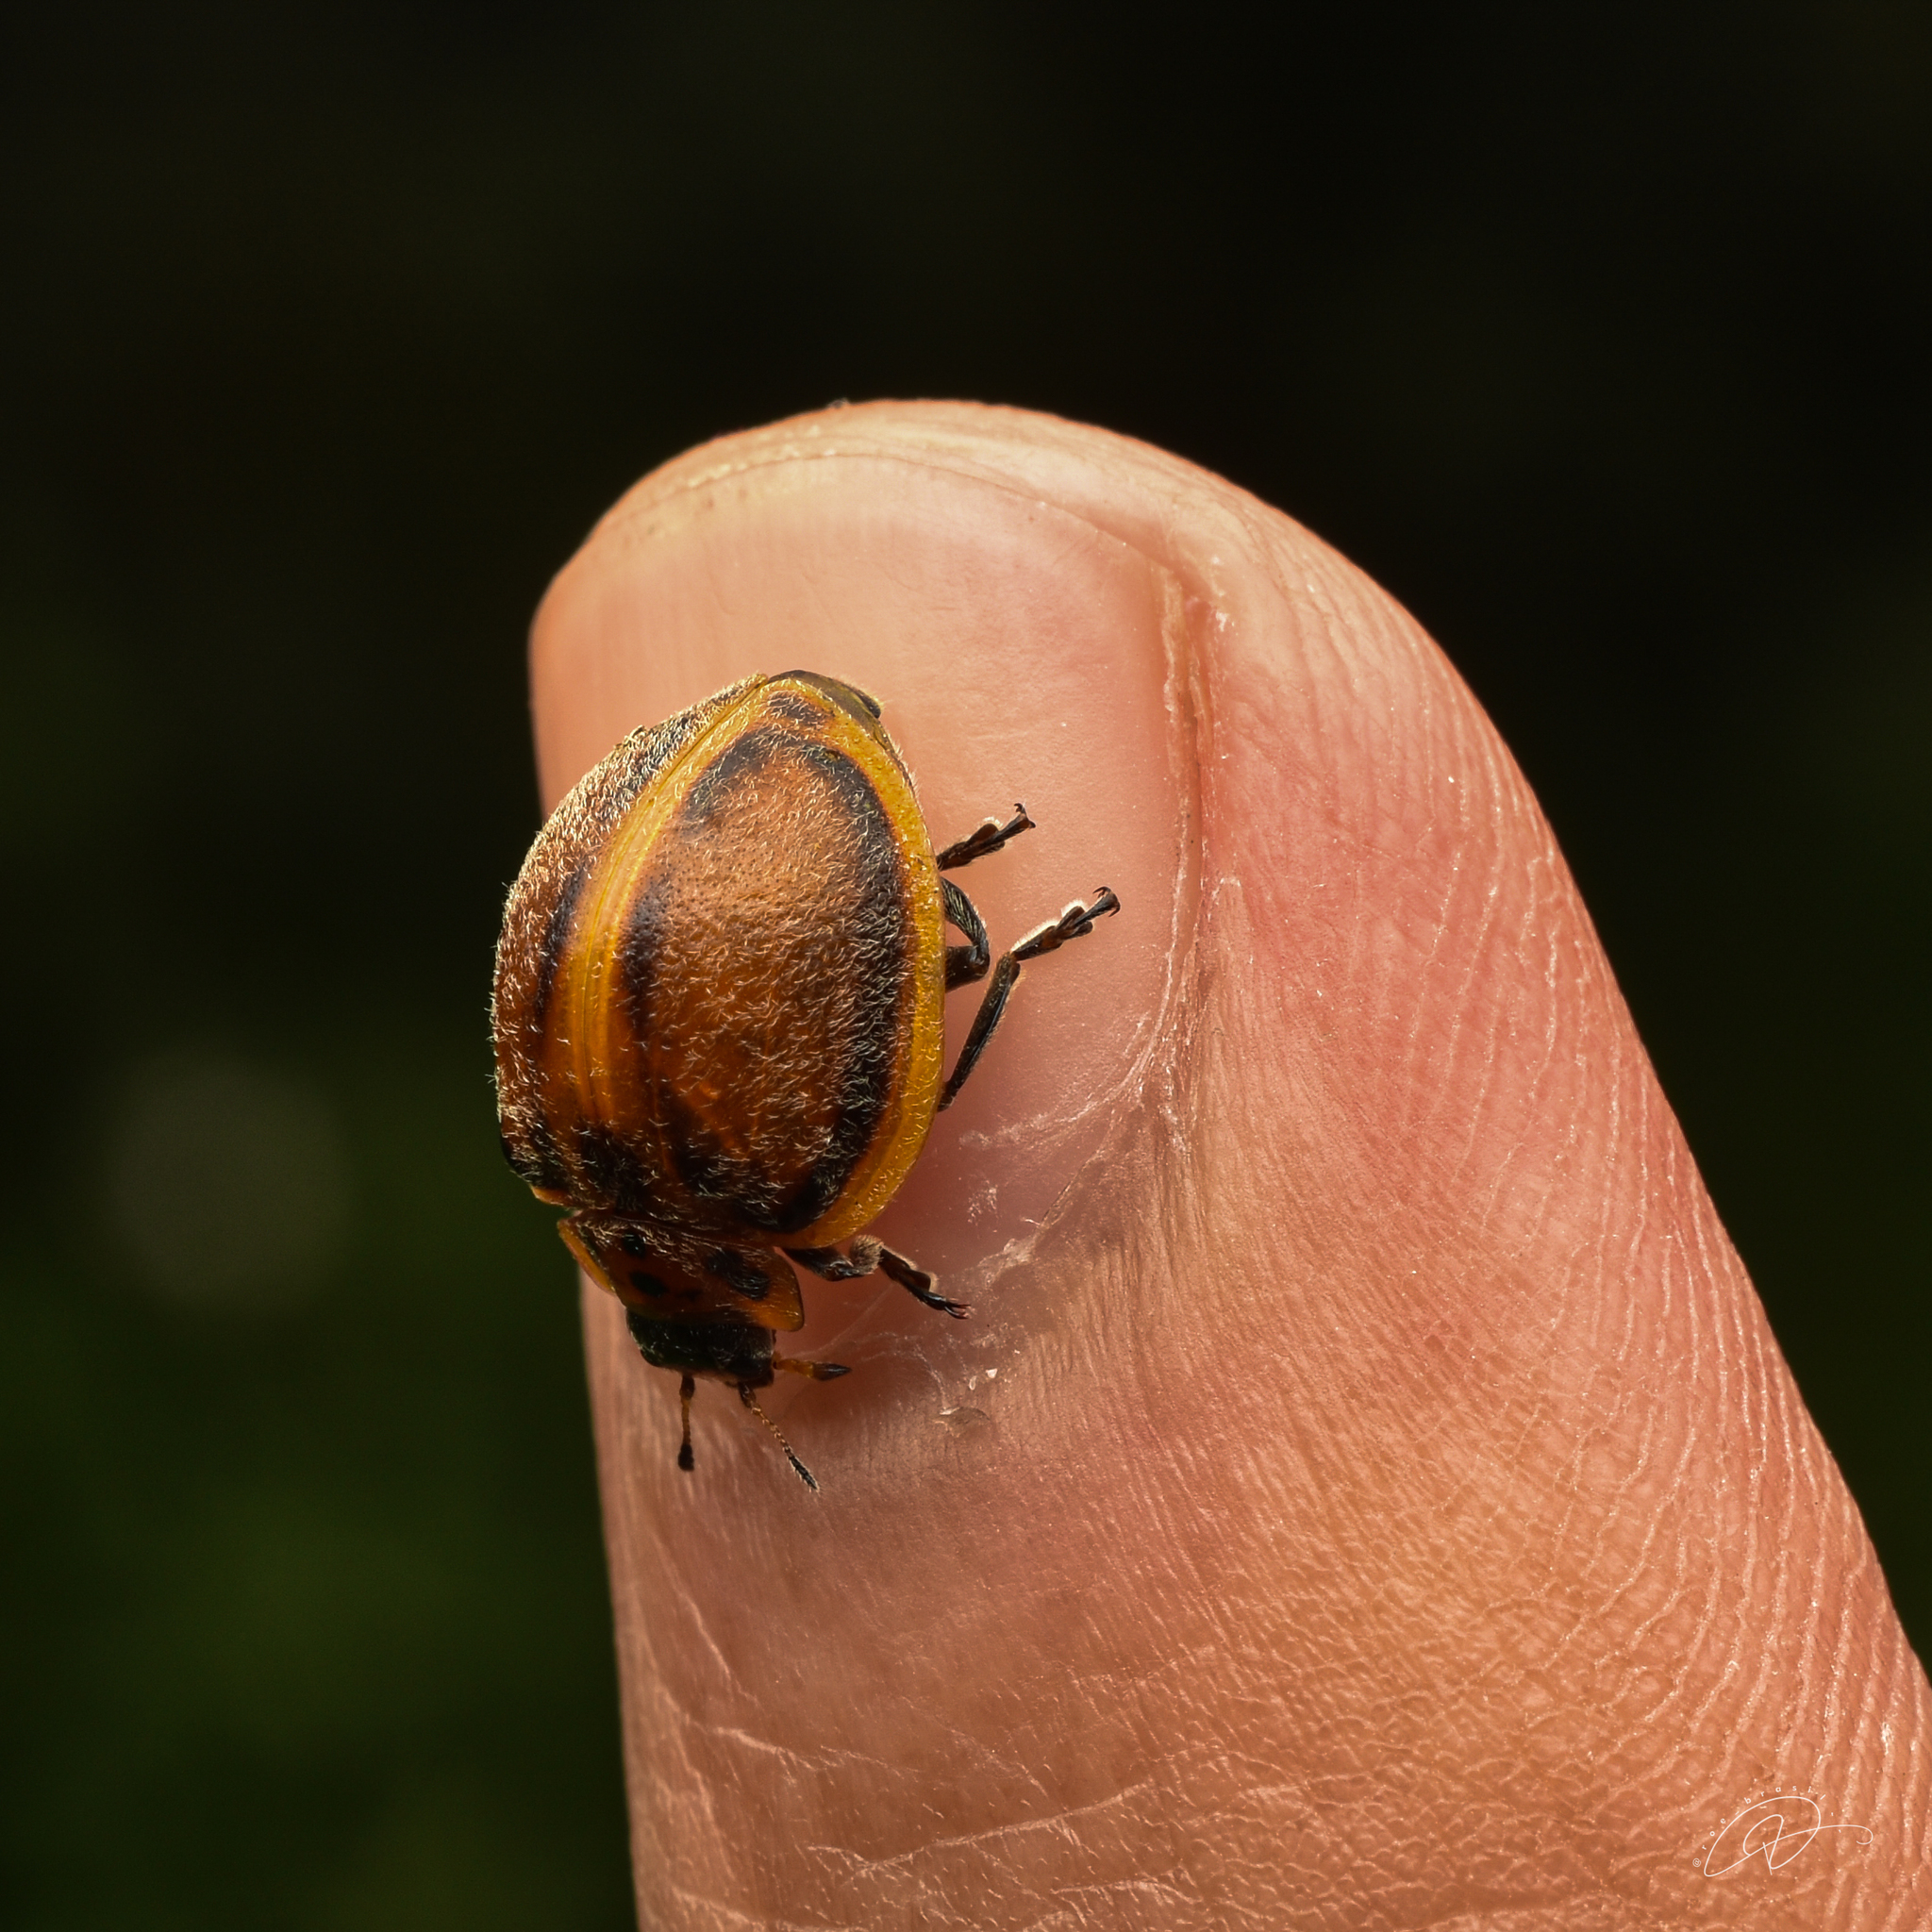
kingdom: Animalia
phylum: Arthropoda
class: Insecta
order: Coleoptera
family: Coccinellidae
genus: Epilachna
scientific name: Epilachna
